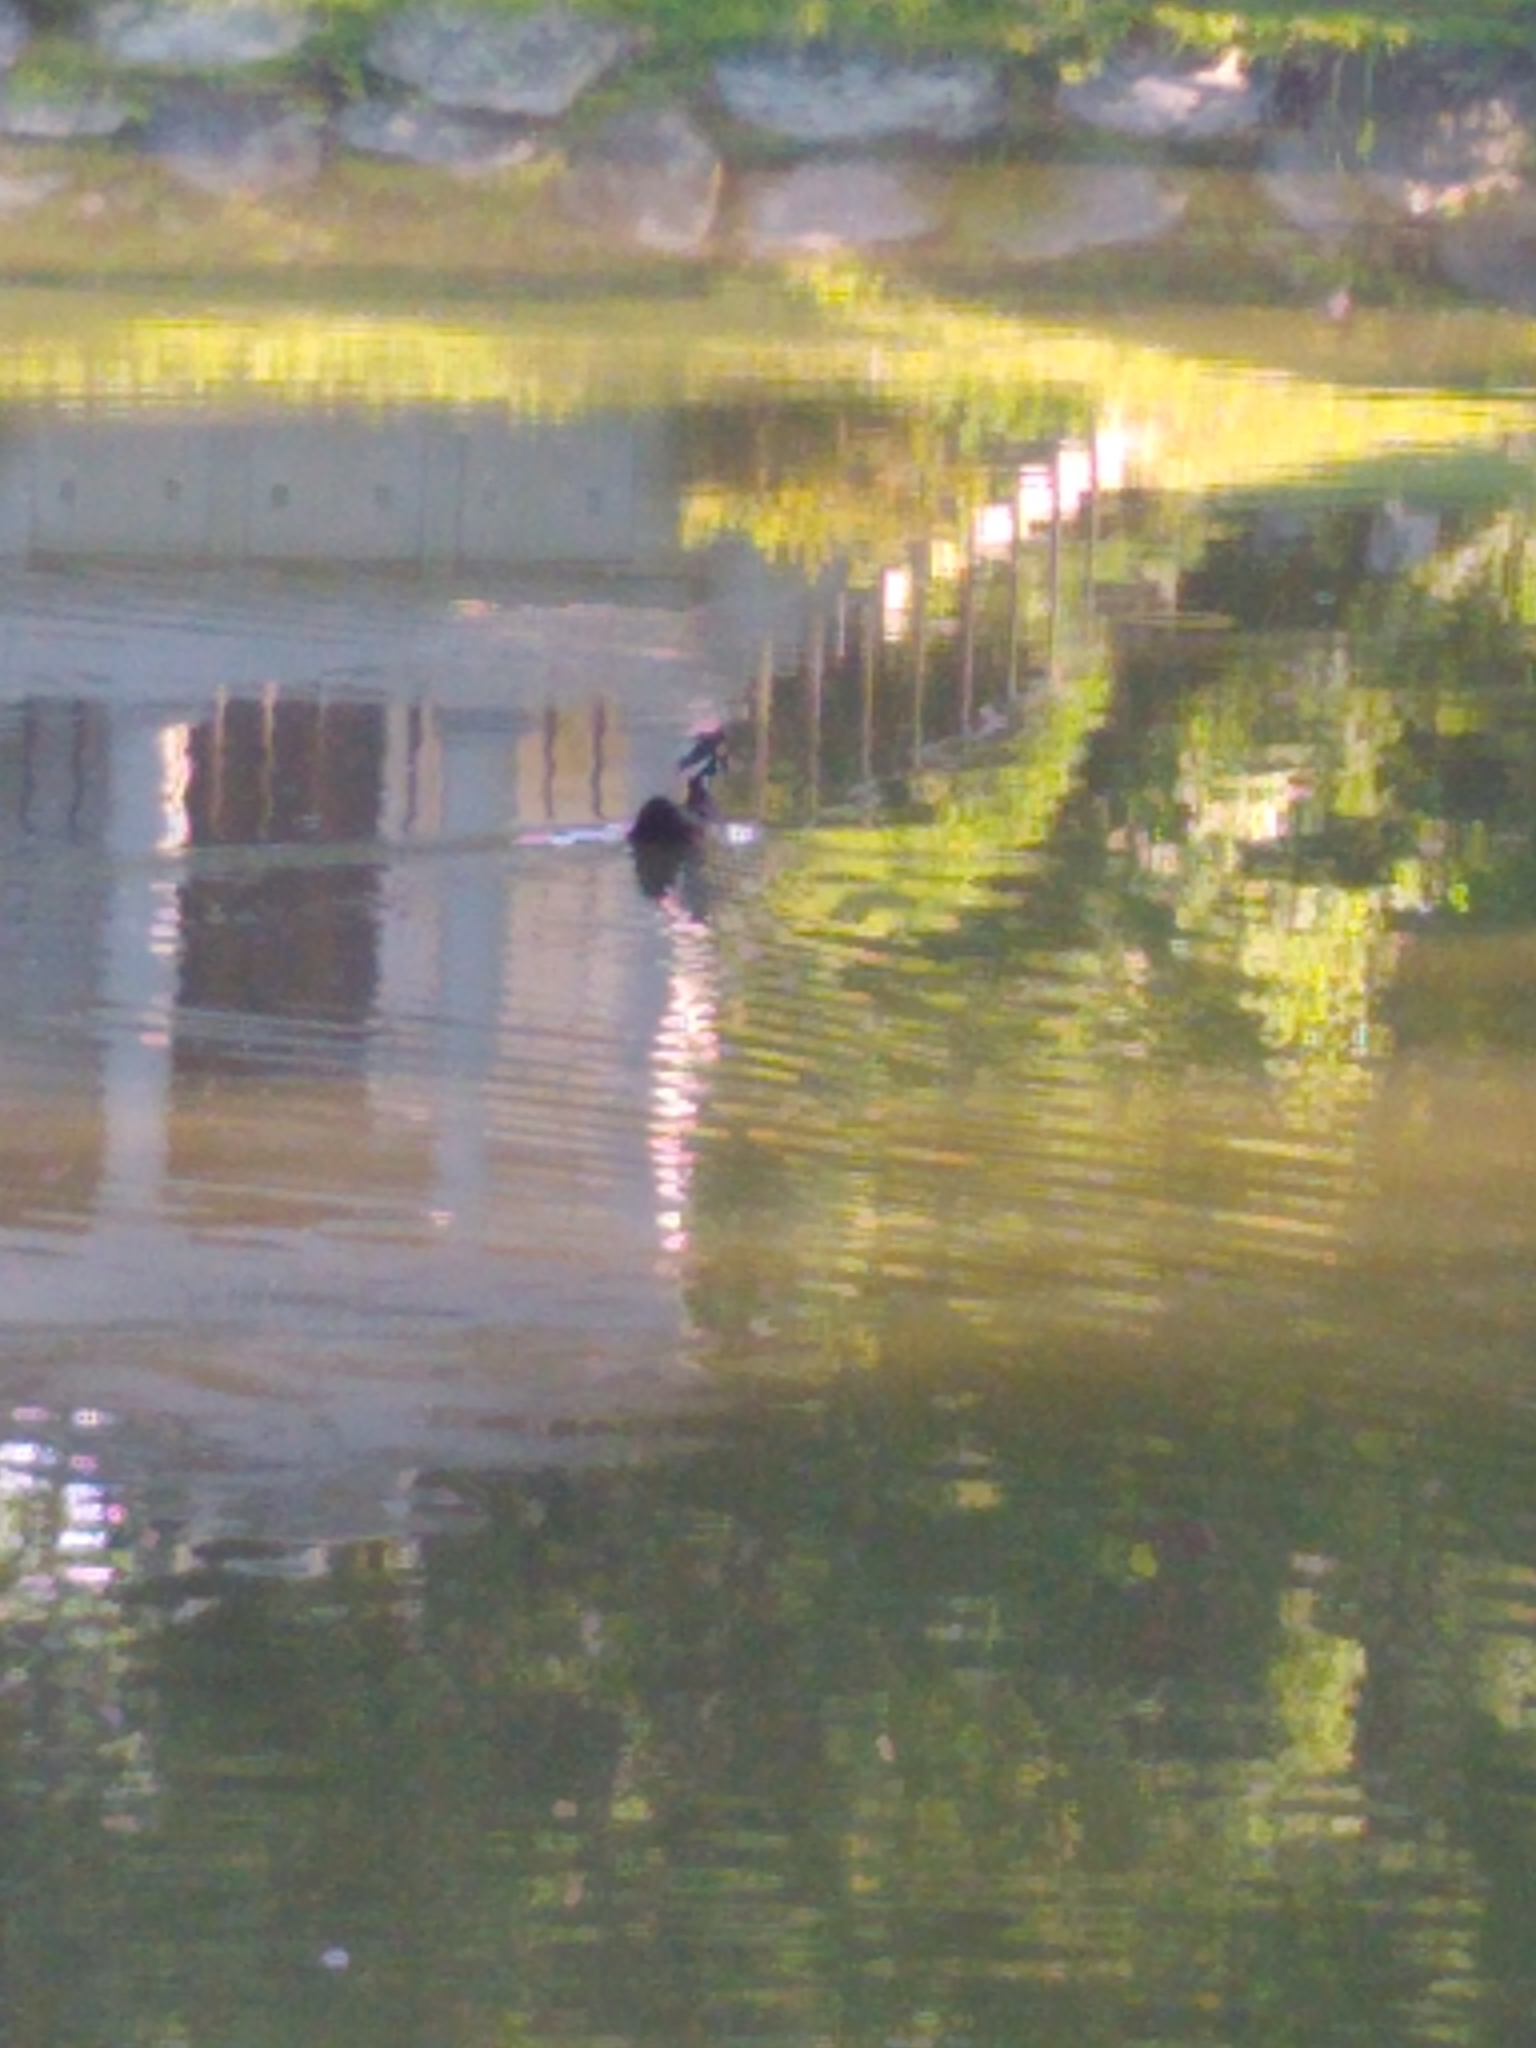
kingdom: Animalia
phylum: Chordata
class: Aves
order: Anseriformes
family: Anatidae
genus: Aix
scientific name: Aix sponsa
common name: Wood duck
